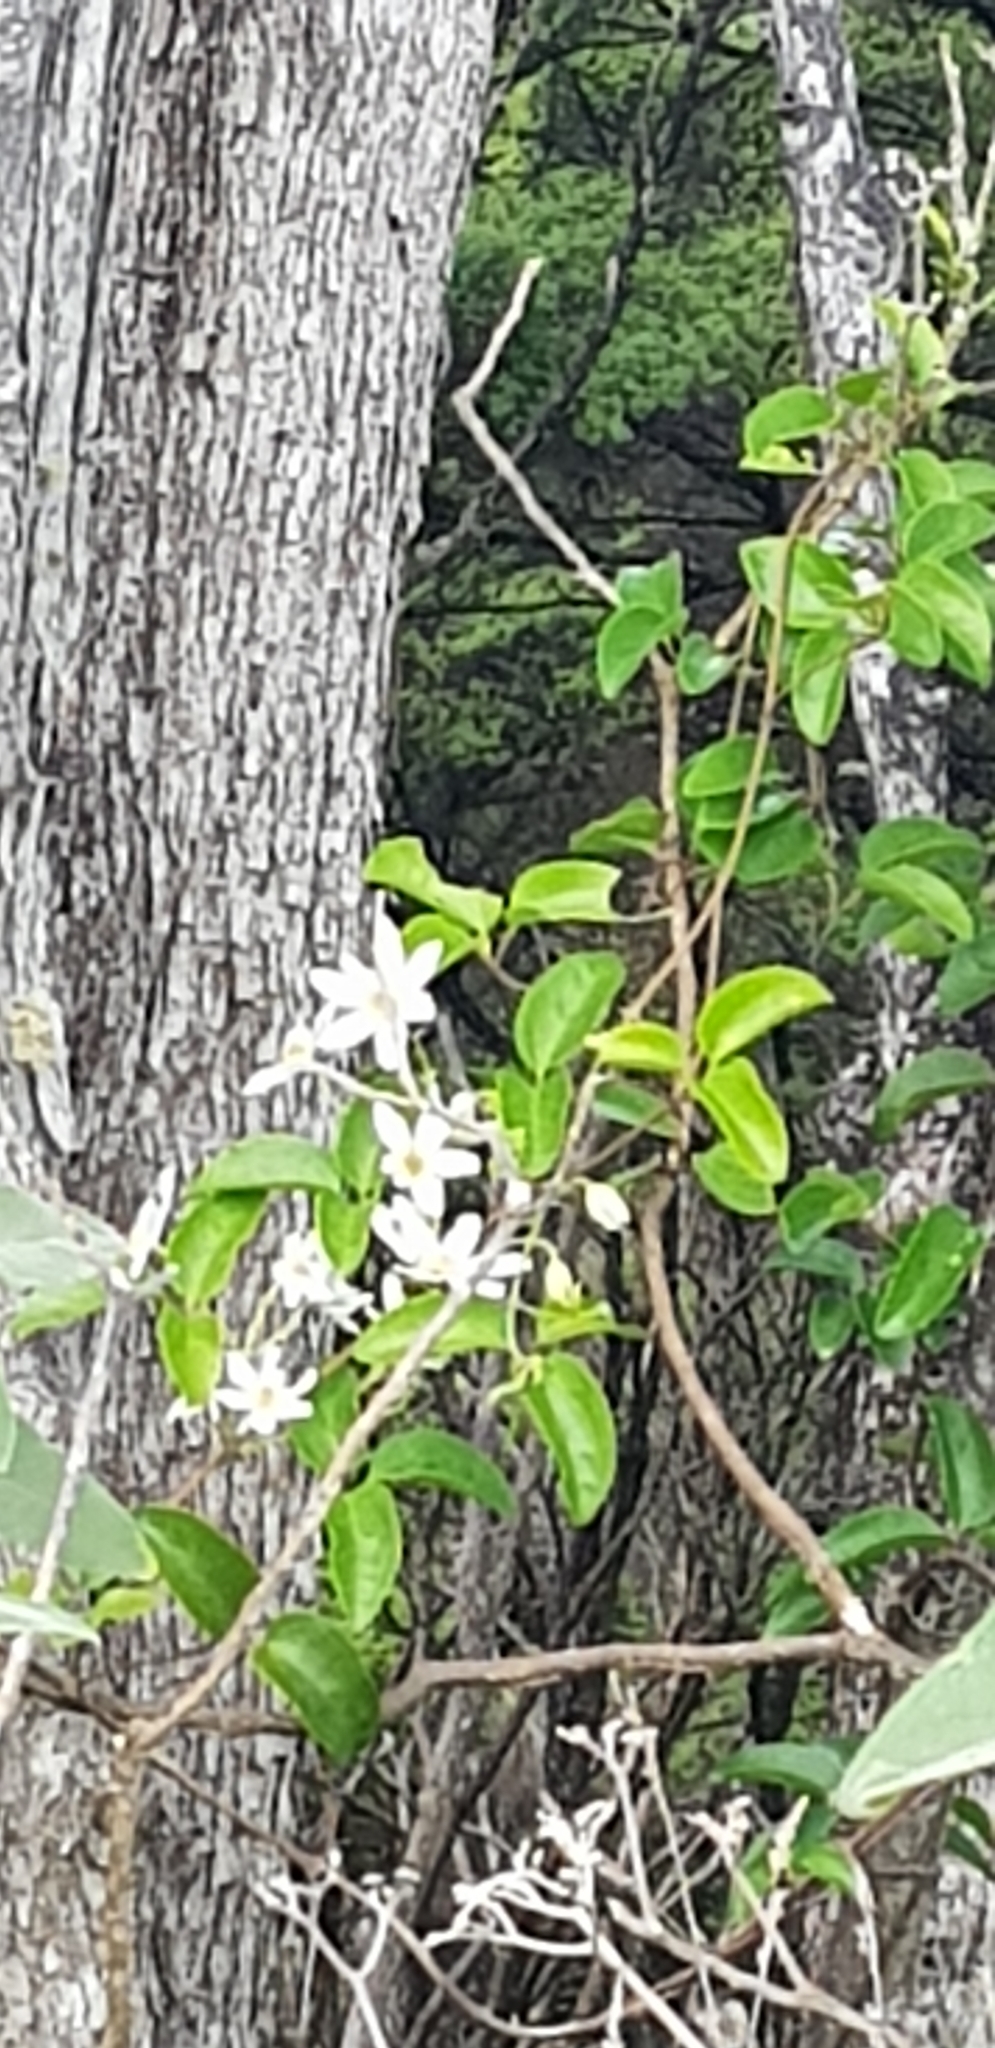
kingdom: Plantae
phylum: Tracheophyta
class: Magnoliopsida
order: Ranunculales
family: Ranunculaceae
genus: Clematis
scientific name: Clematis paniculata
